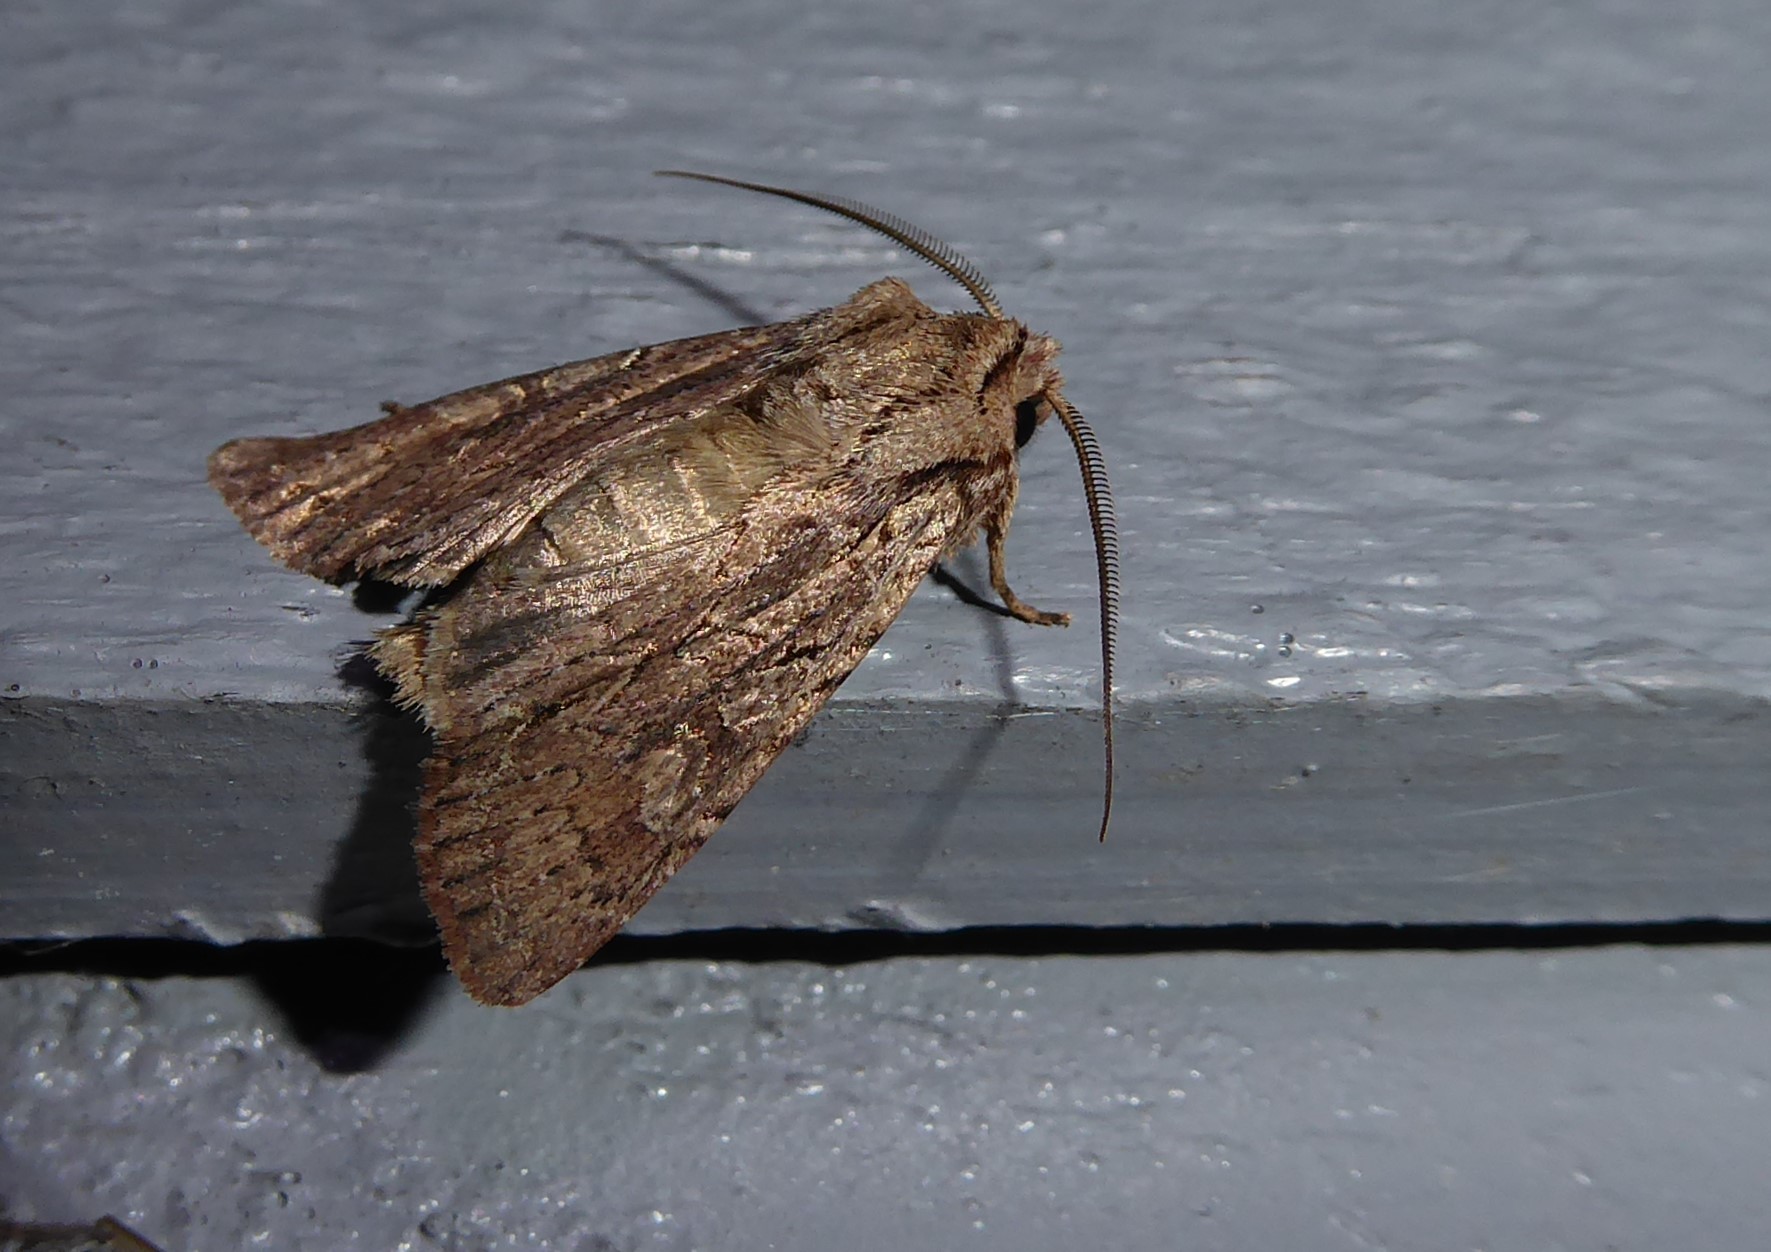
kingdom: Animalia
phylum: Arthropoda
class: Insecta
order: Lepidoptera
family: Noctuidae
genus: Ichneutica
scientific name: Ichneutica
